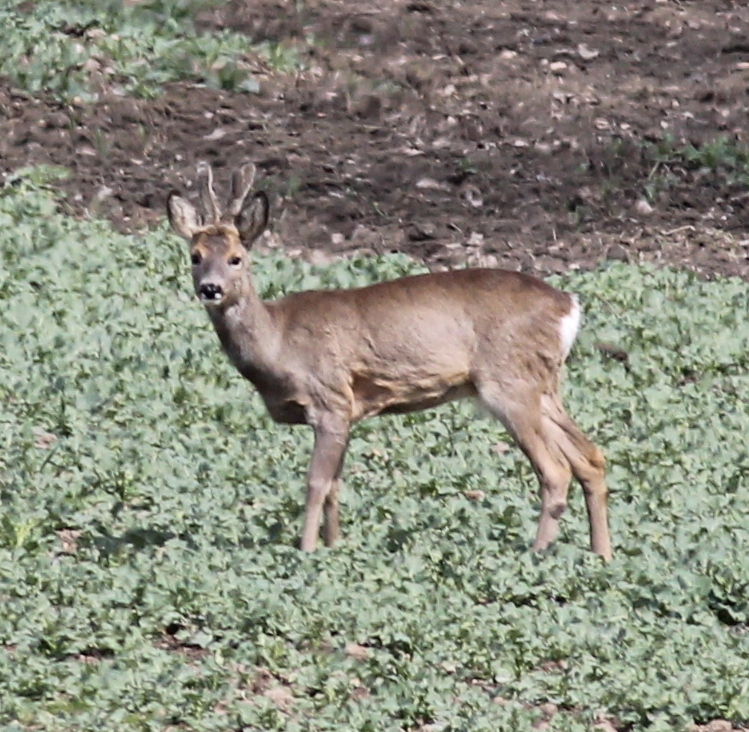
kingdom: Animalia
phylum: Chordata
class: Mammalia
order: Artiodactyla
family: Cervidae
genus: Capreolus
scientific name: Capreolus capreolus
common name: Western roe deer
